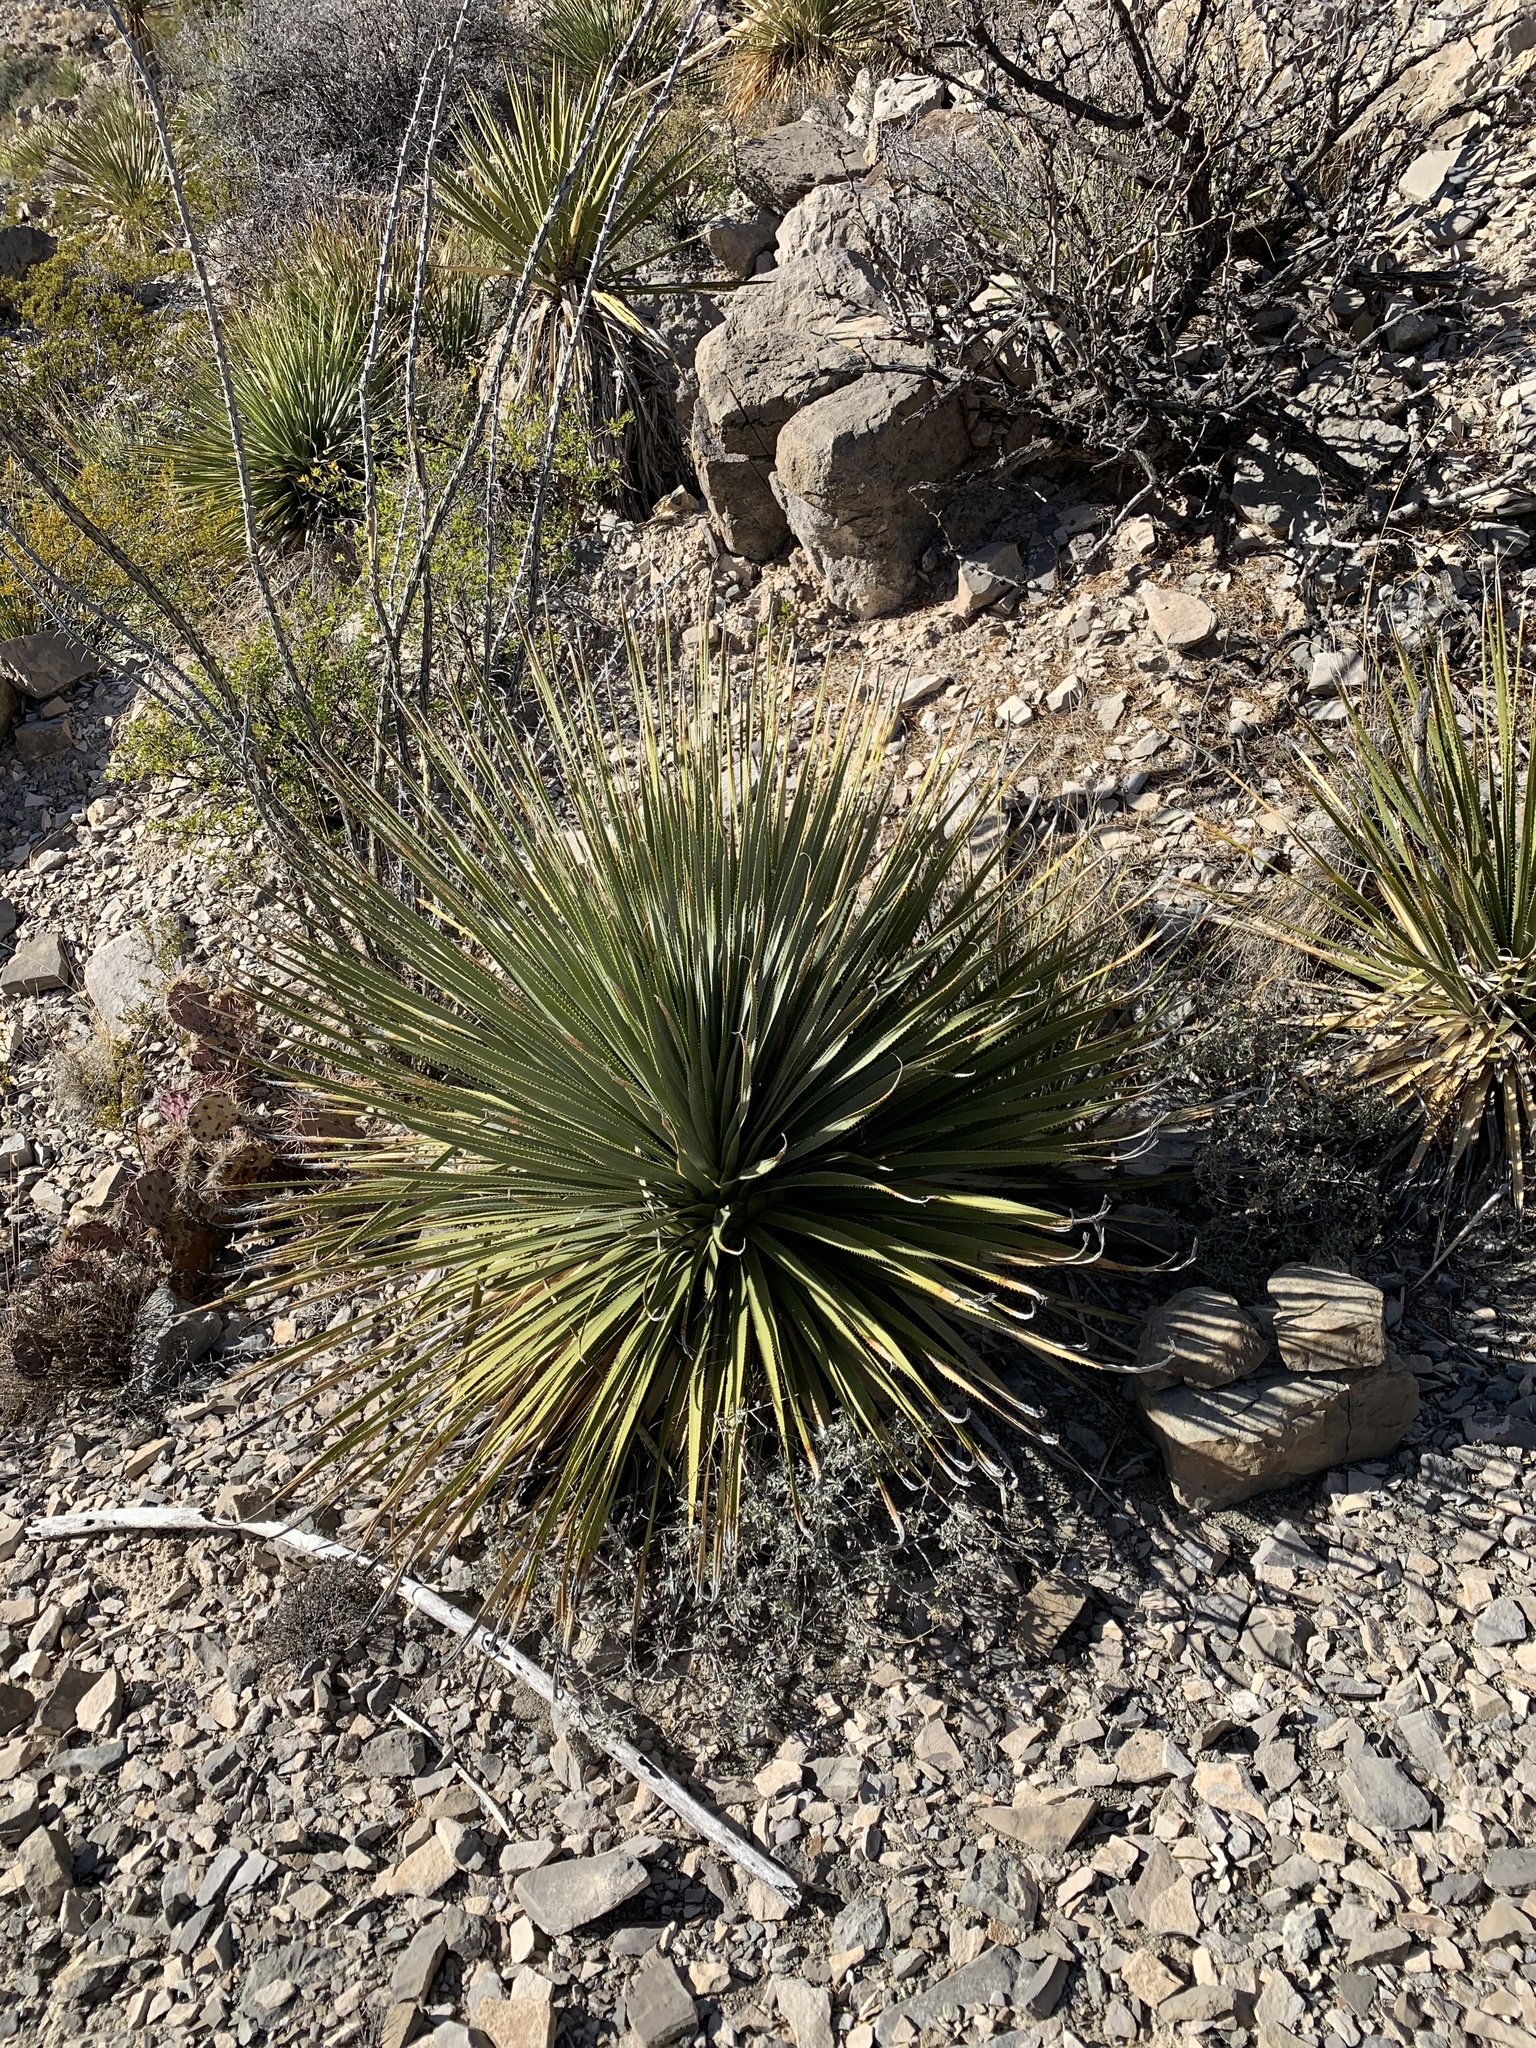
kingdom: Plantae
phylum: Tracheophyta
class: Liliopsida
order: Asparagales
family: Asparagaceae
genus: Dasylirion
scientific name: Dasylirion wheeleri
